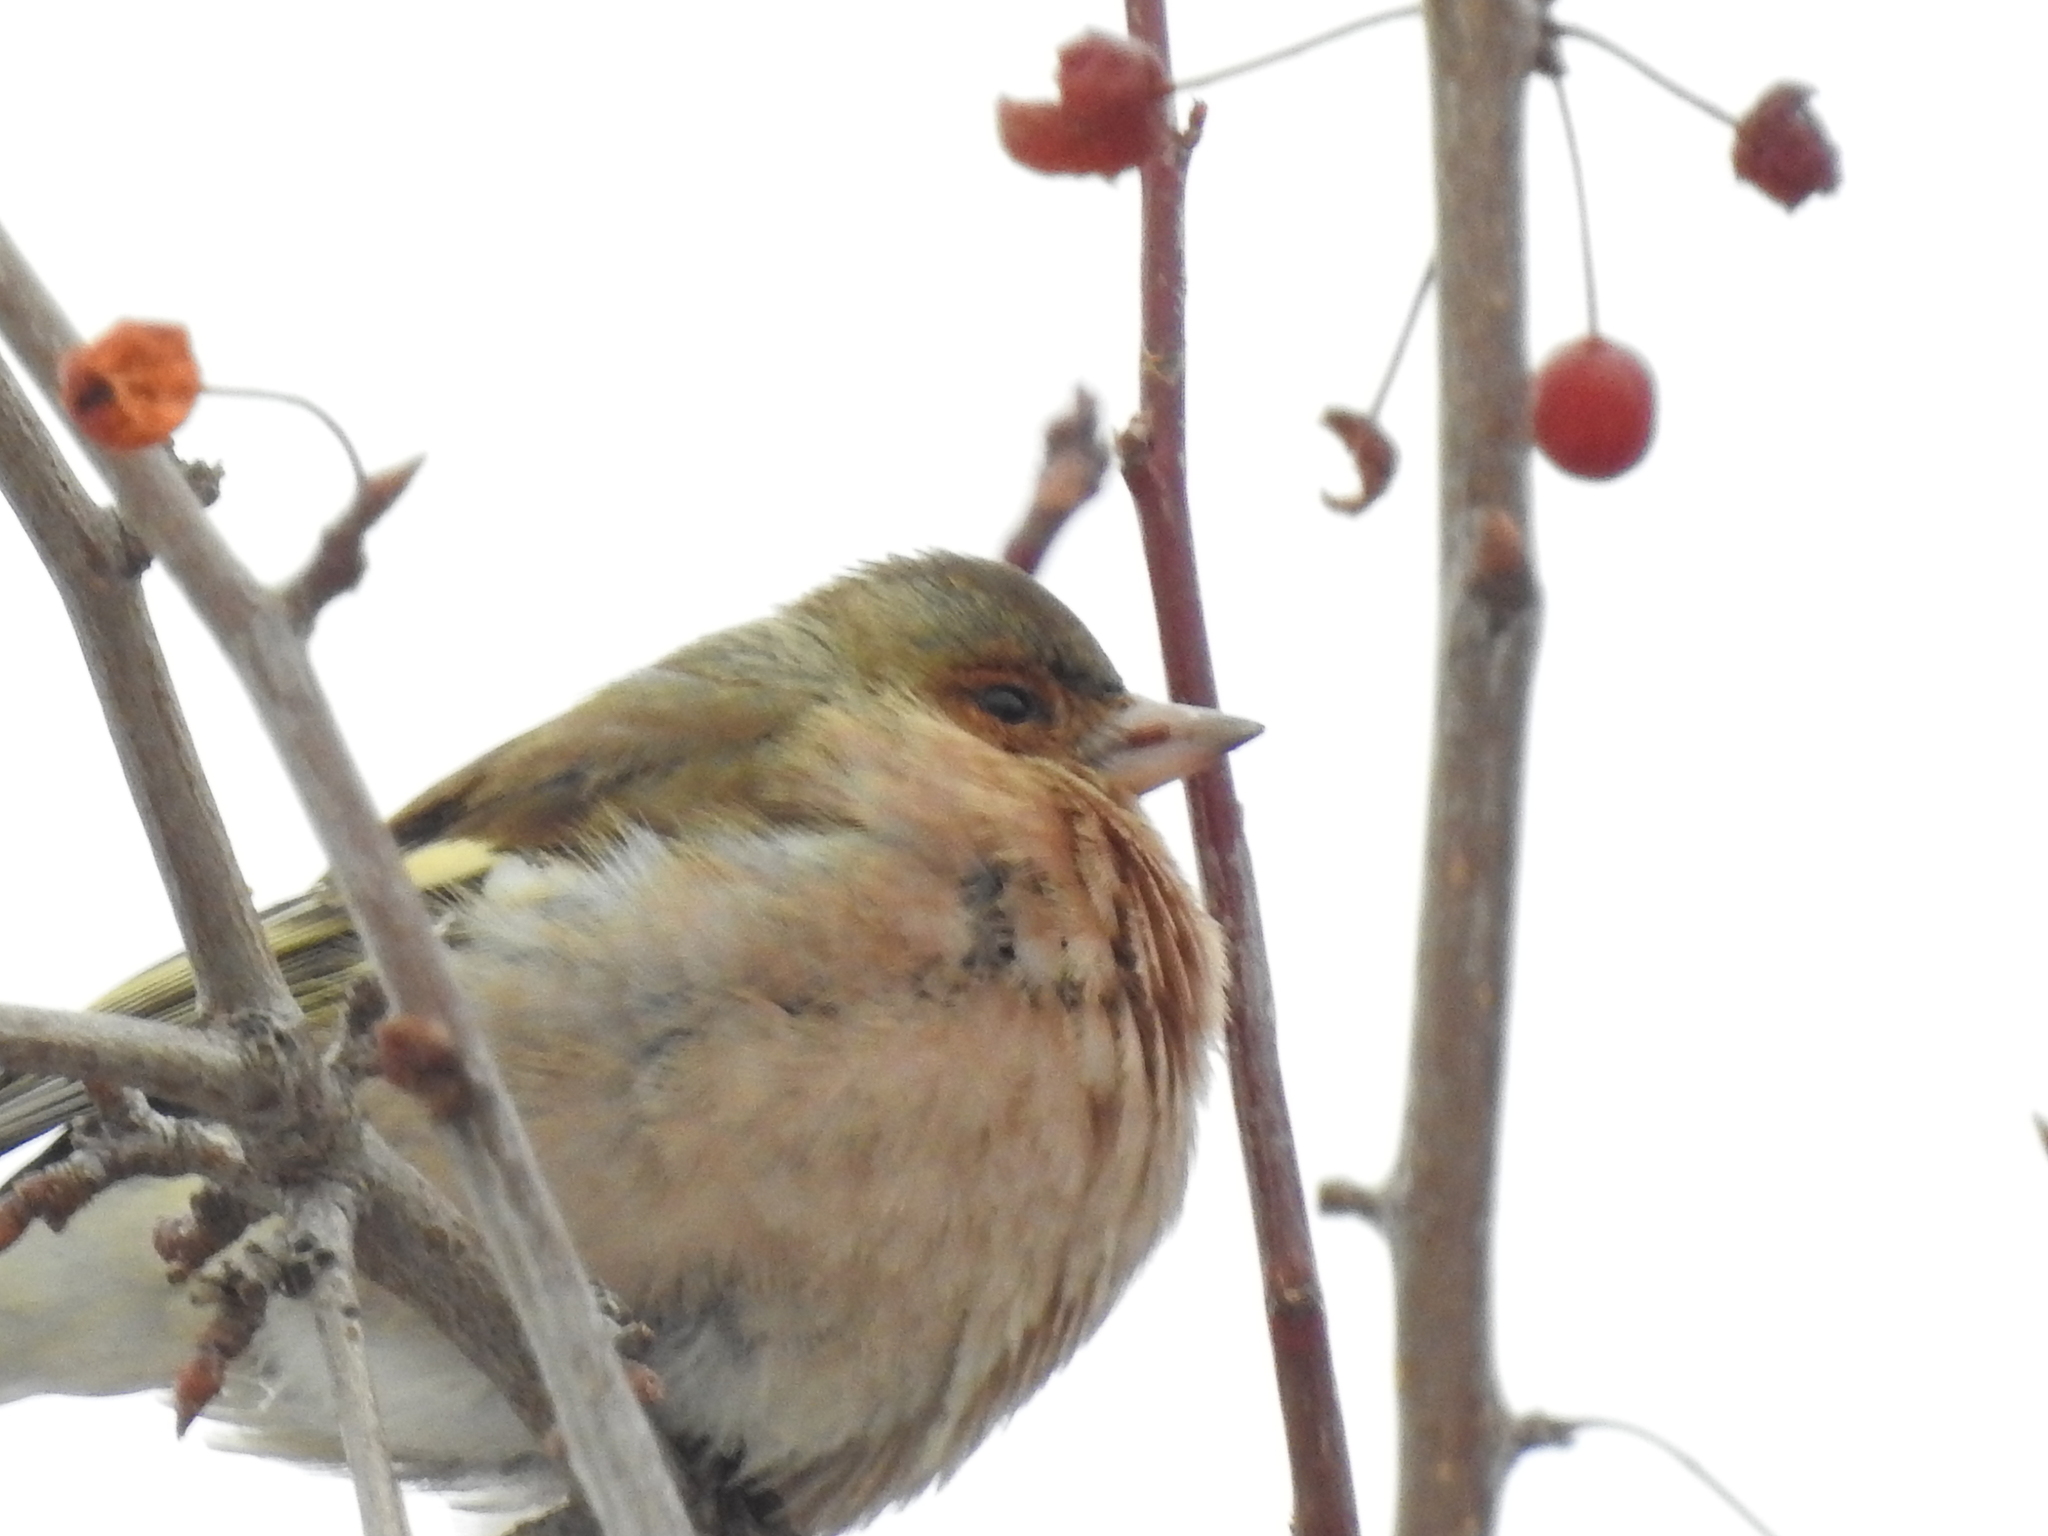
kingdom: Animalia
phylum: Chordata
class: Aves
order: Passeriformes
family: Fringillidae
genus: Fringilla
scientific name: Fringilla coelebs
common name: Common chaffinch
